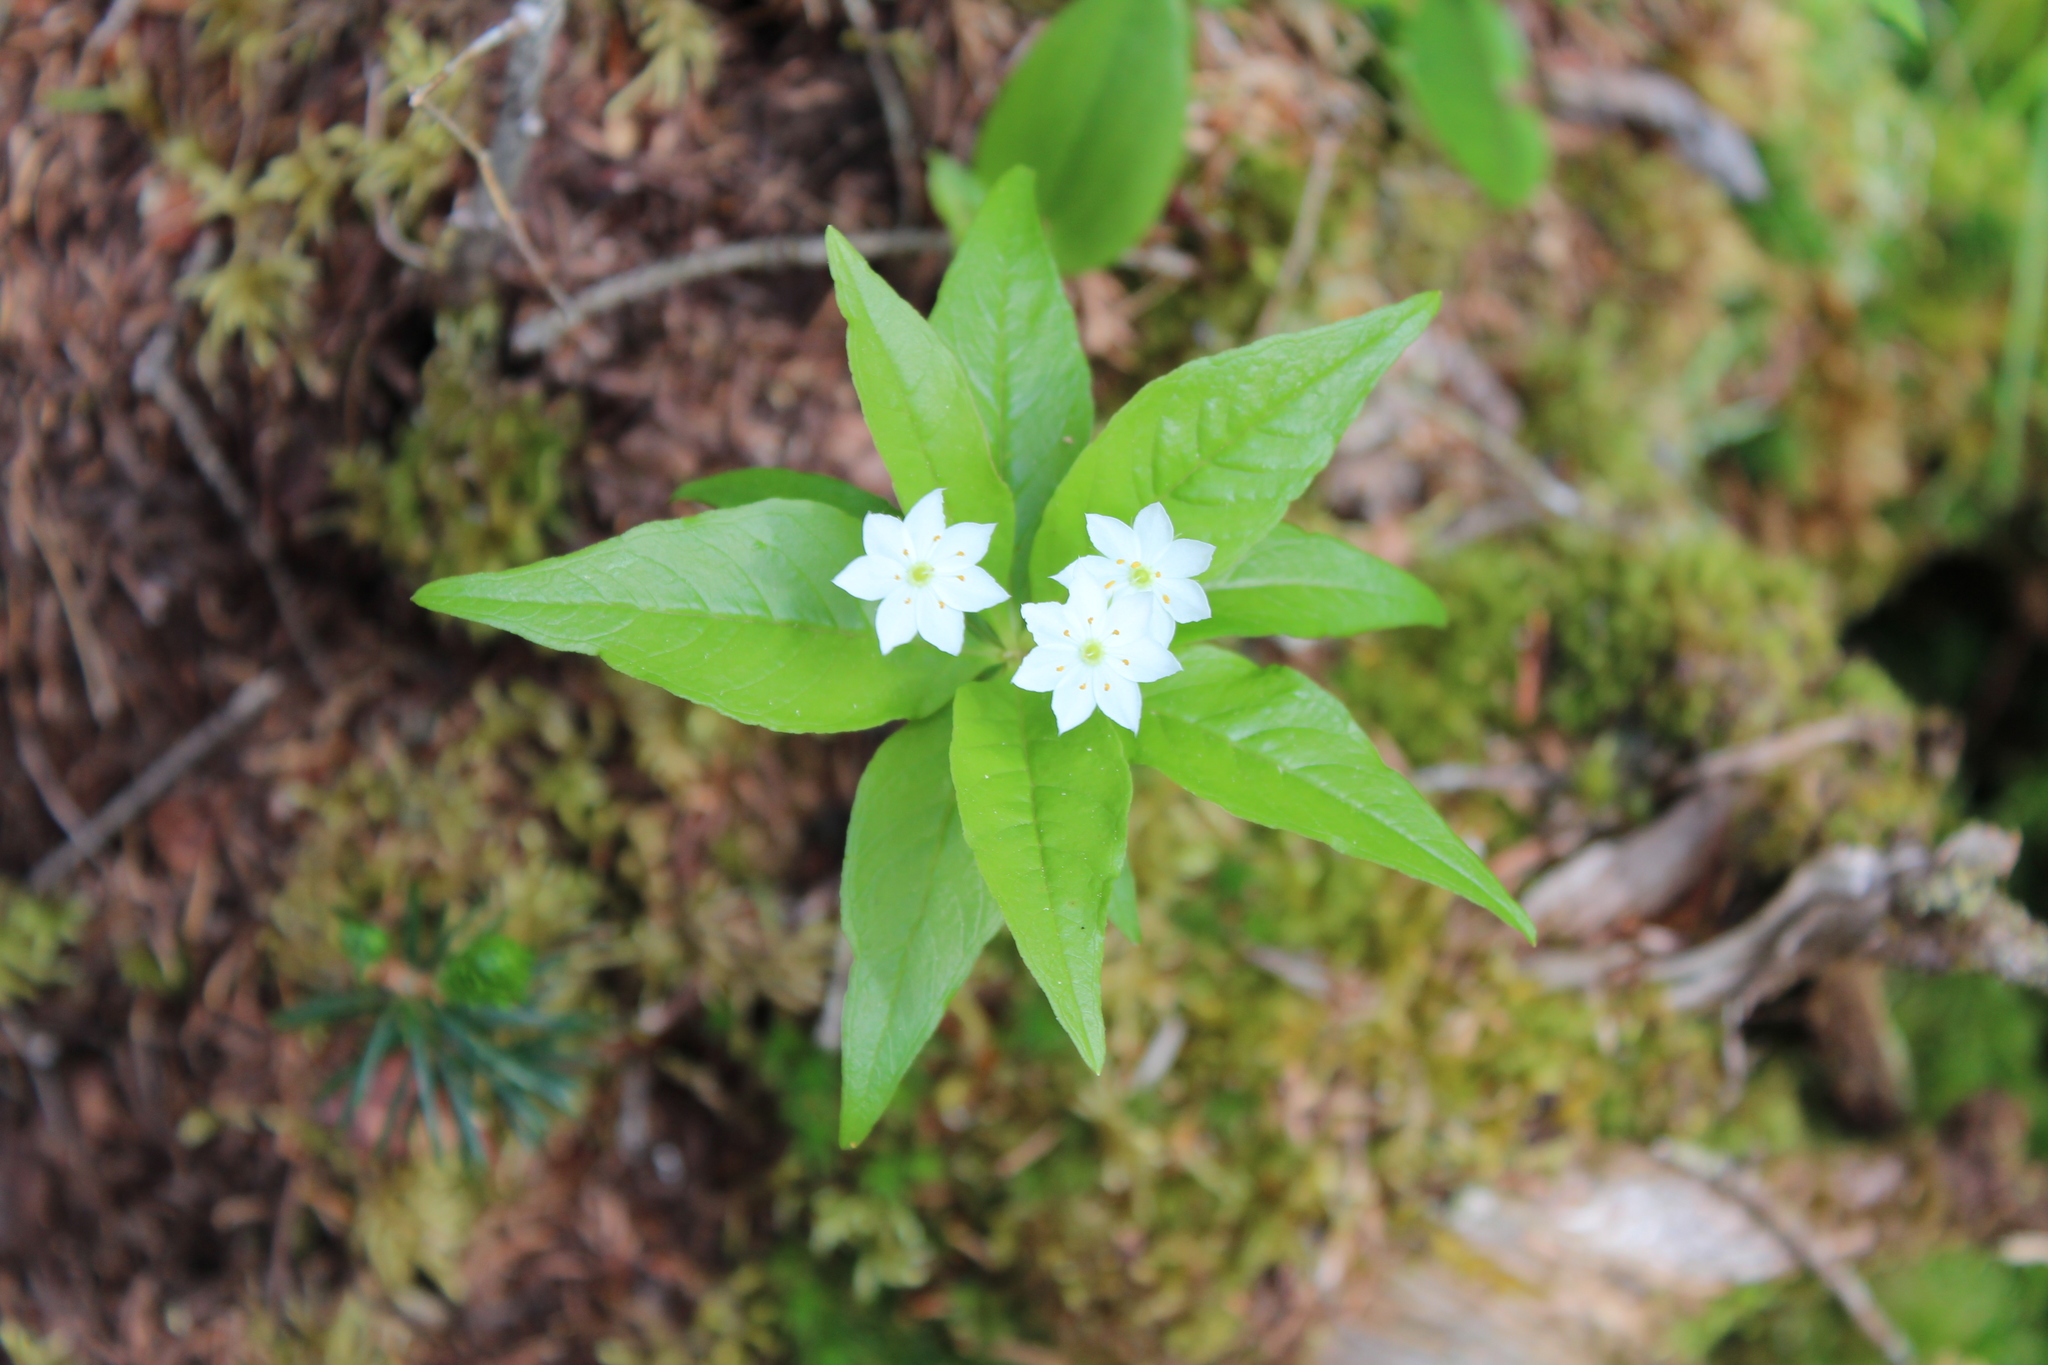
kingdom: Plantae
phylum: Tracheophyta
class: Magnoliopsida
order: Ericales
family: Primulaceae
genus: Lysimachia
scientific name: Lysimachia borealis
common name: American starflower
